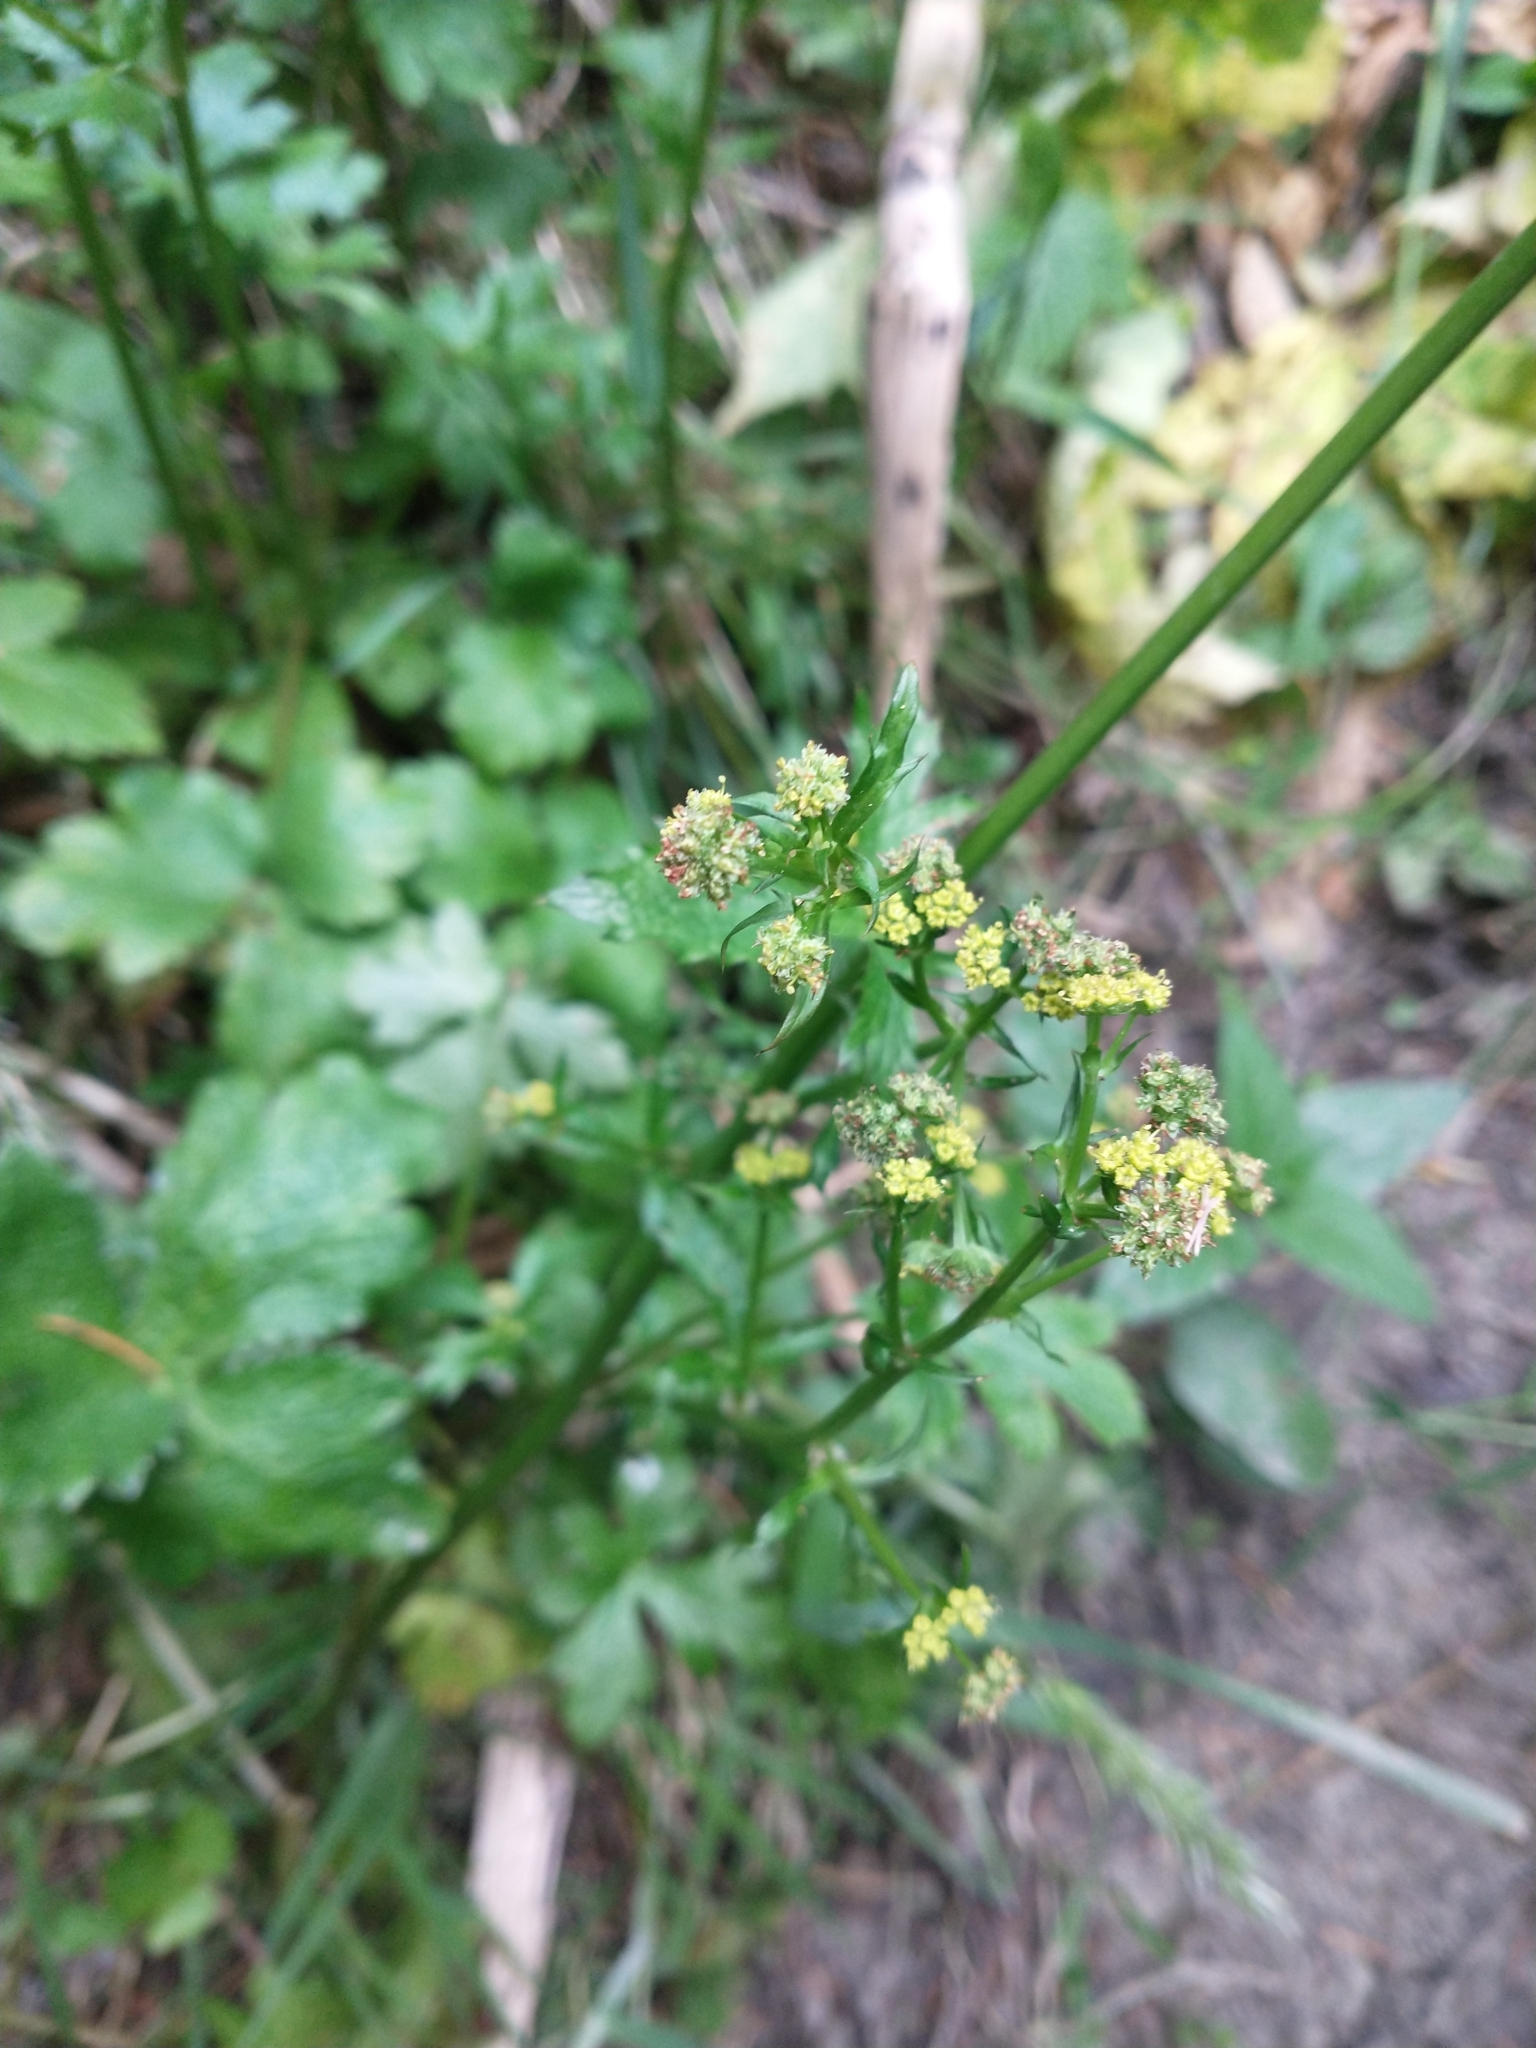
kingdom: Plantae
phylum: Tracheophyta
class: Magnoliopsida
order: Apiales
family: Apiaceae
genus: Sanicula
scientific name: Sanicula crassicaulis
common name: Western snakeroot
